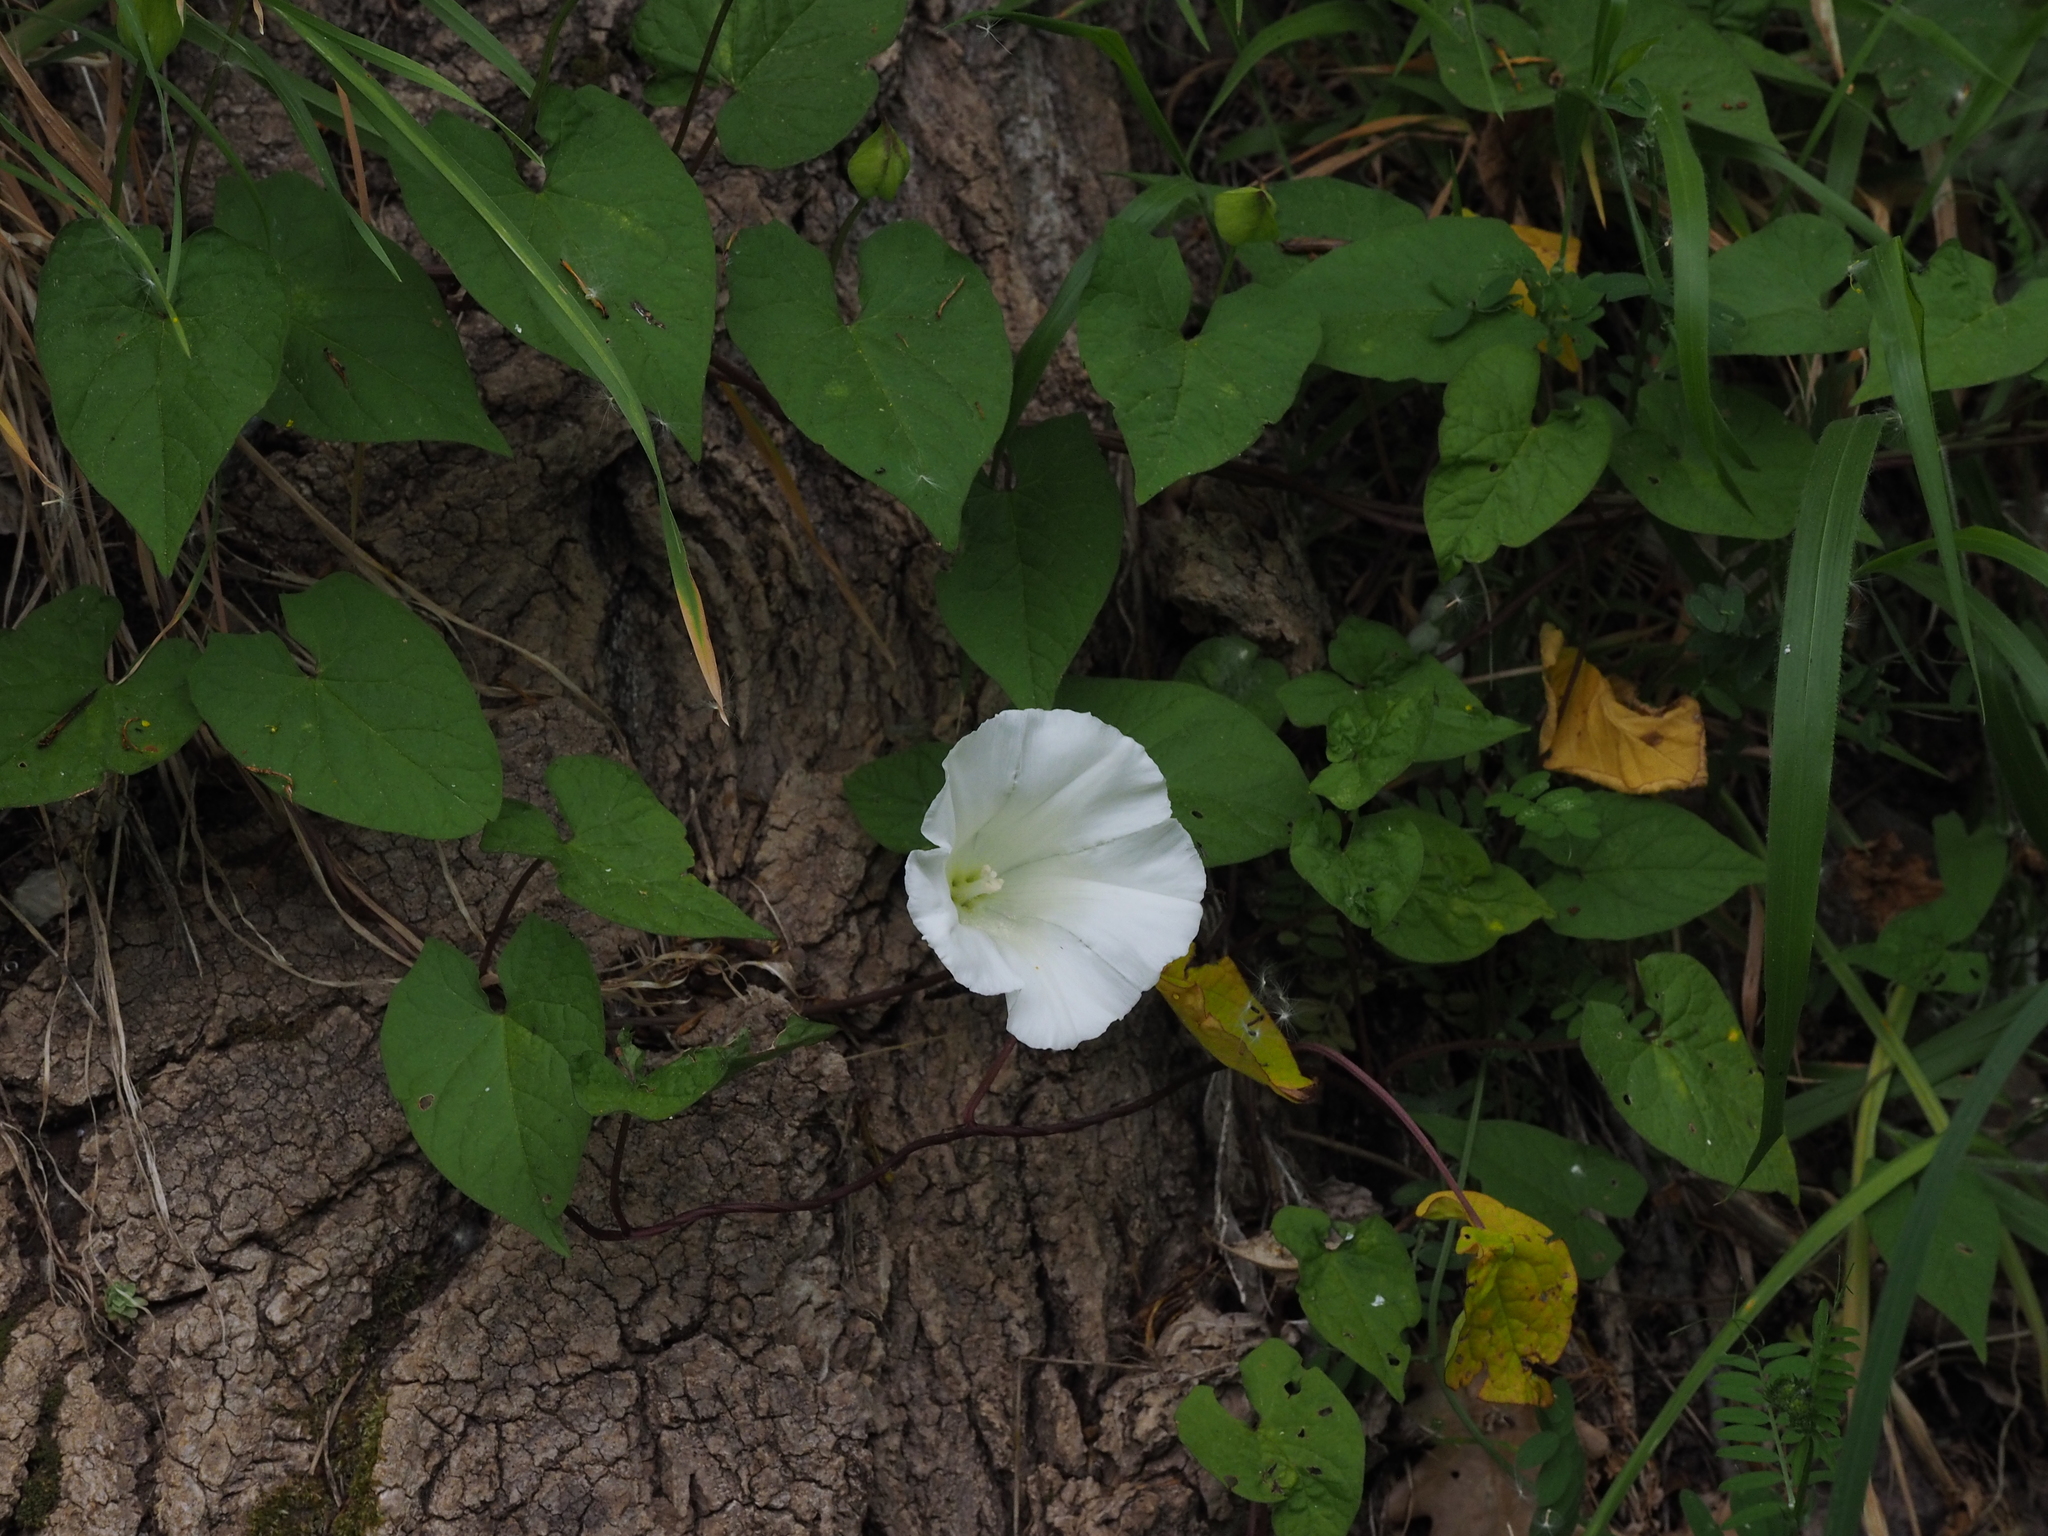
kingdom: Plantae
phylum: Tracheophyta
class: Magnoliopsida
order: Solanales
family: Convolvulaceae
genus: Calystegia
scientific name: Calystegia silvatica
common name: Large bindweed
